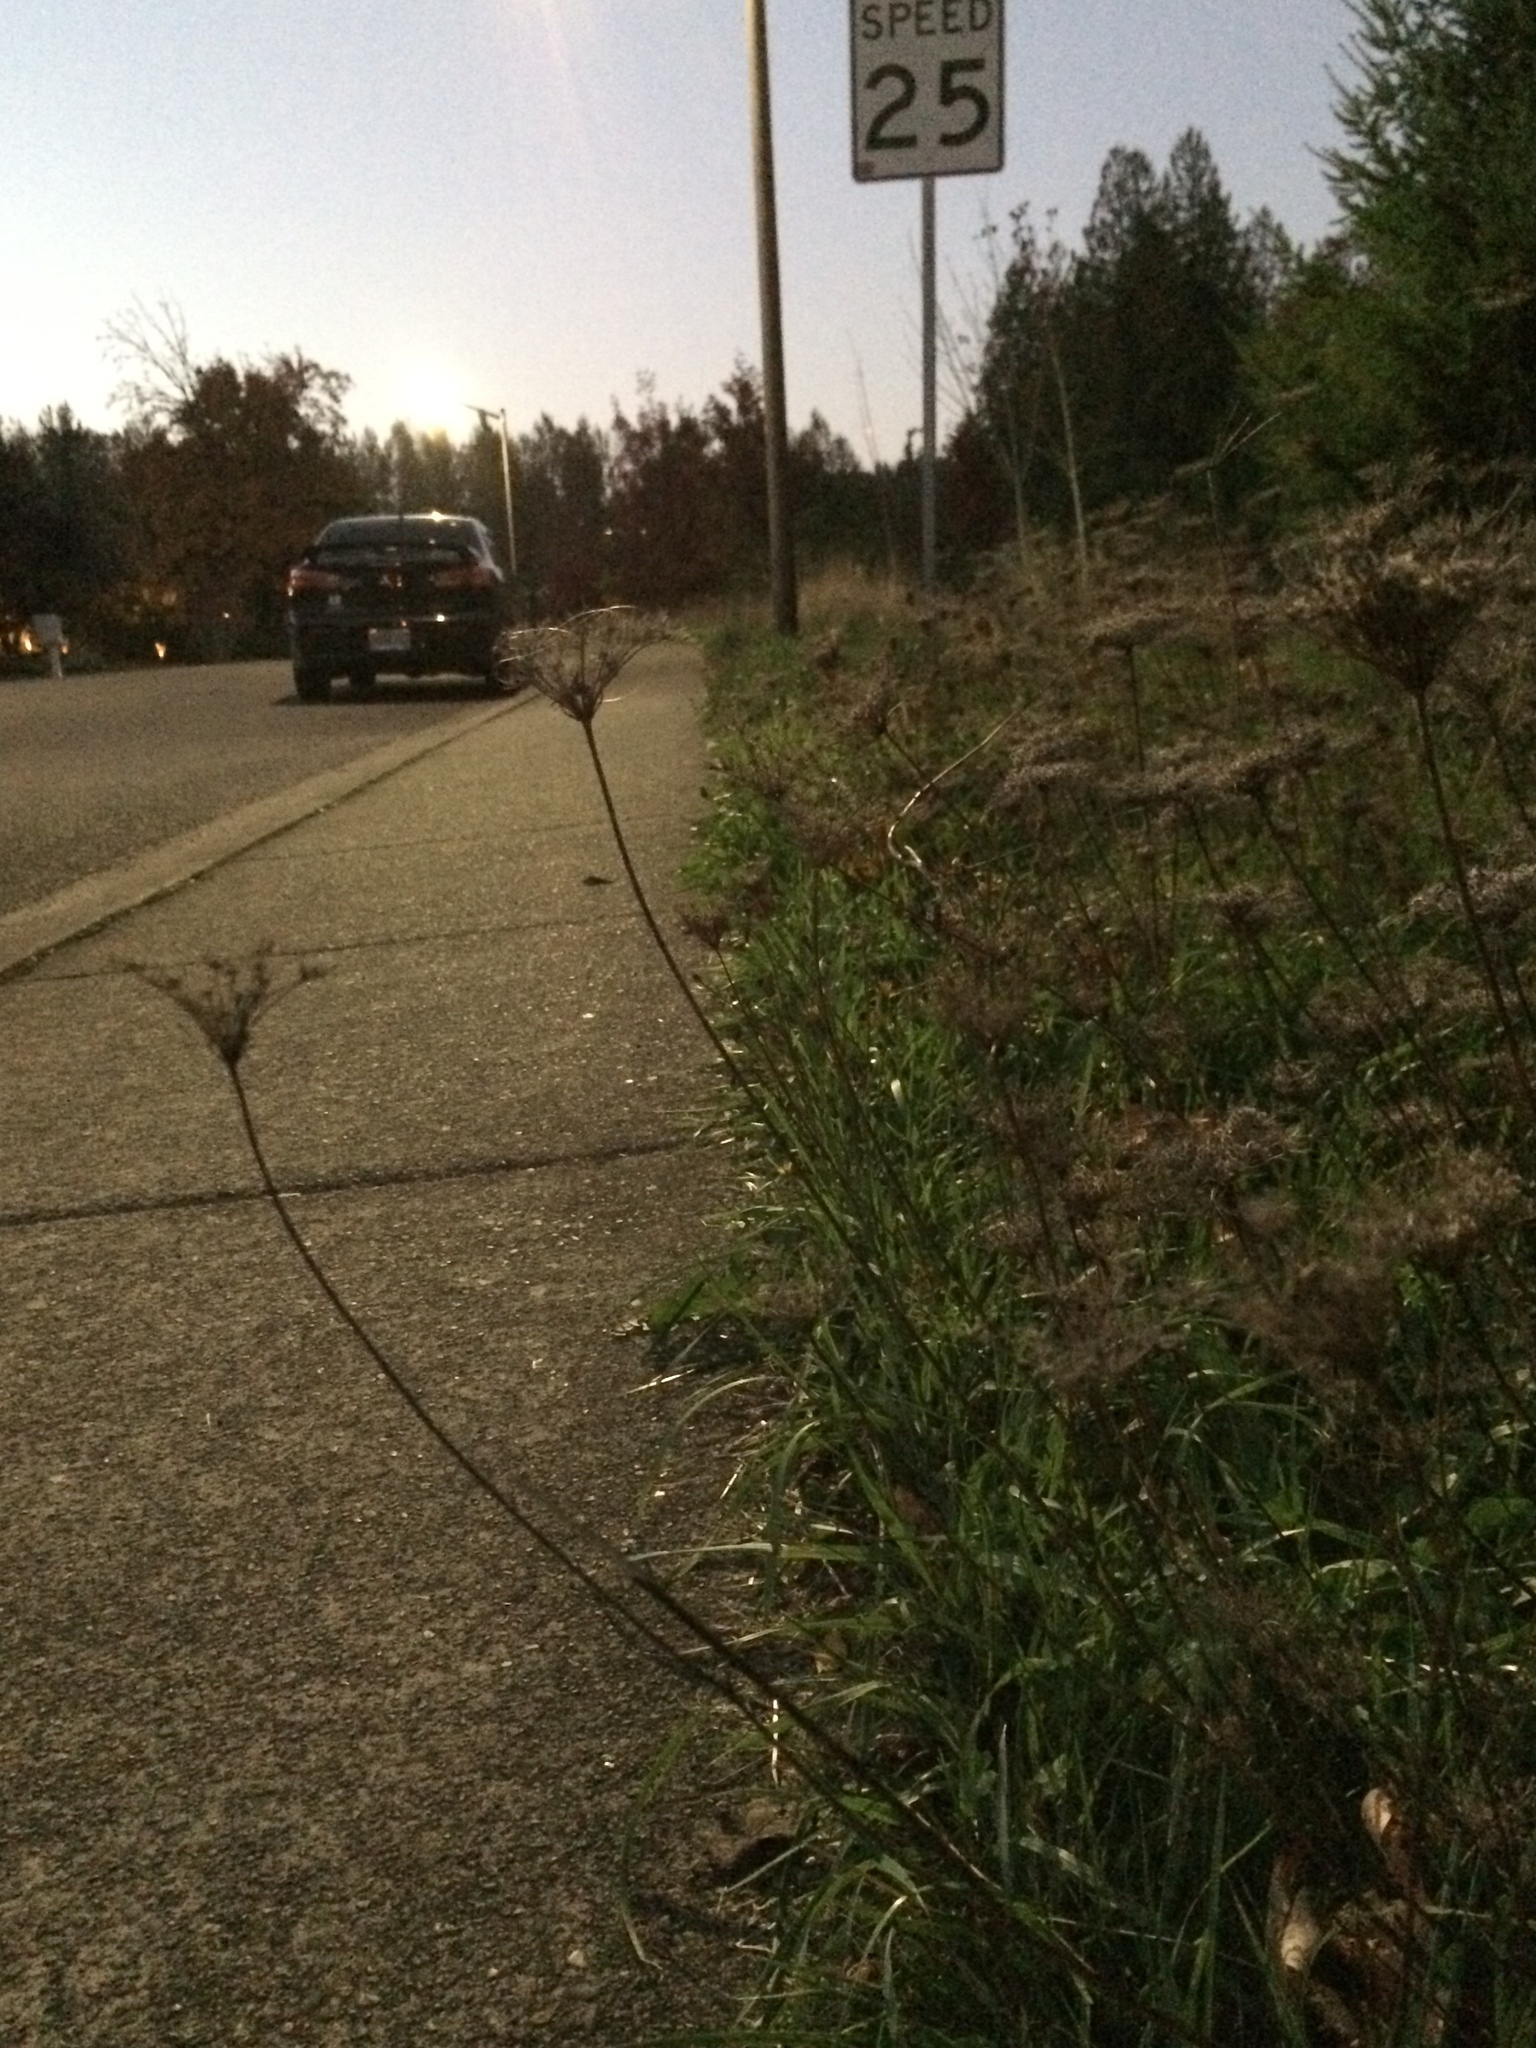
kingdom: Plantae
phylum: Tracheophyta
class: Magnoliopsida
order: Apiales
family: Apiaceae
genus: Daucus
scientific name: Daucus carota
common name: Wild carrot
